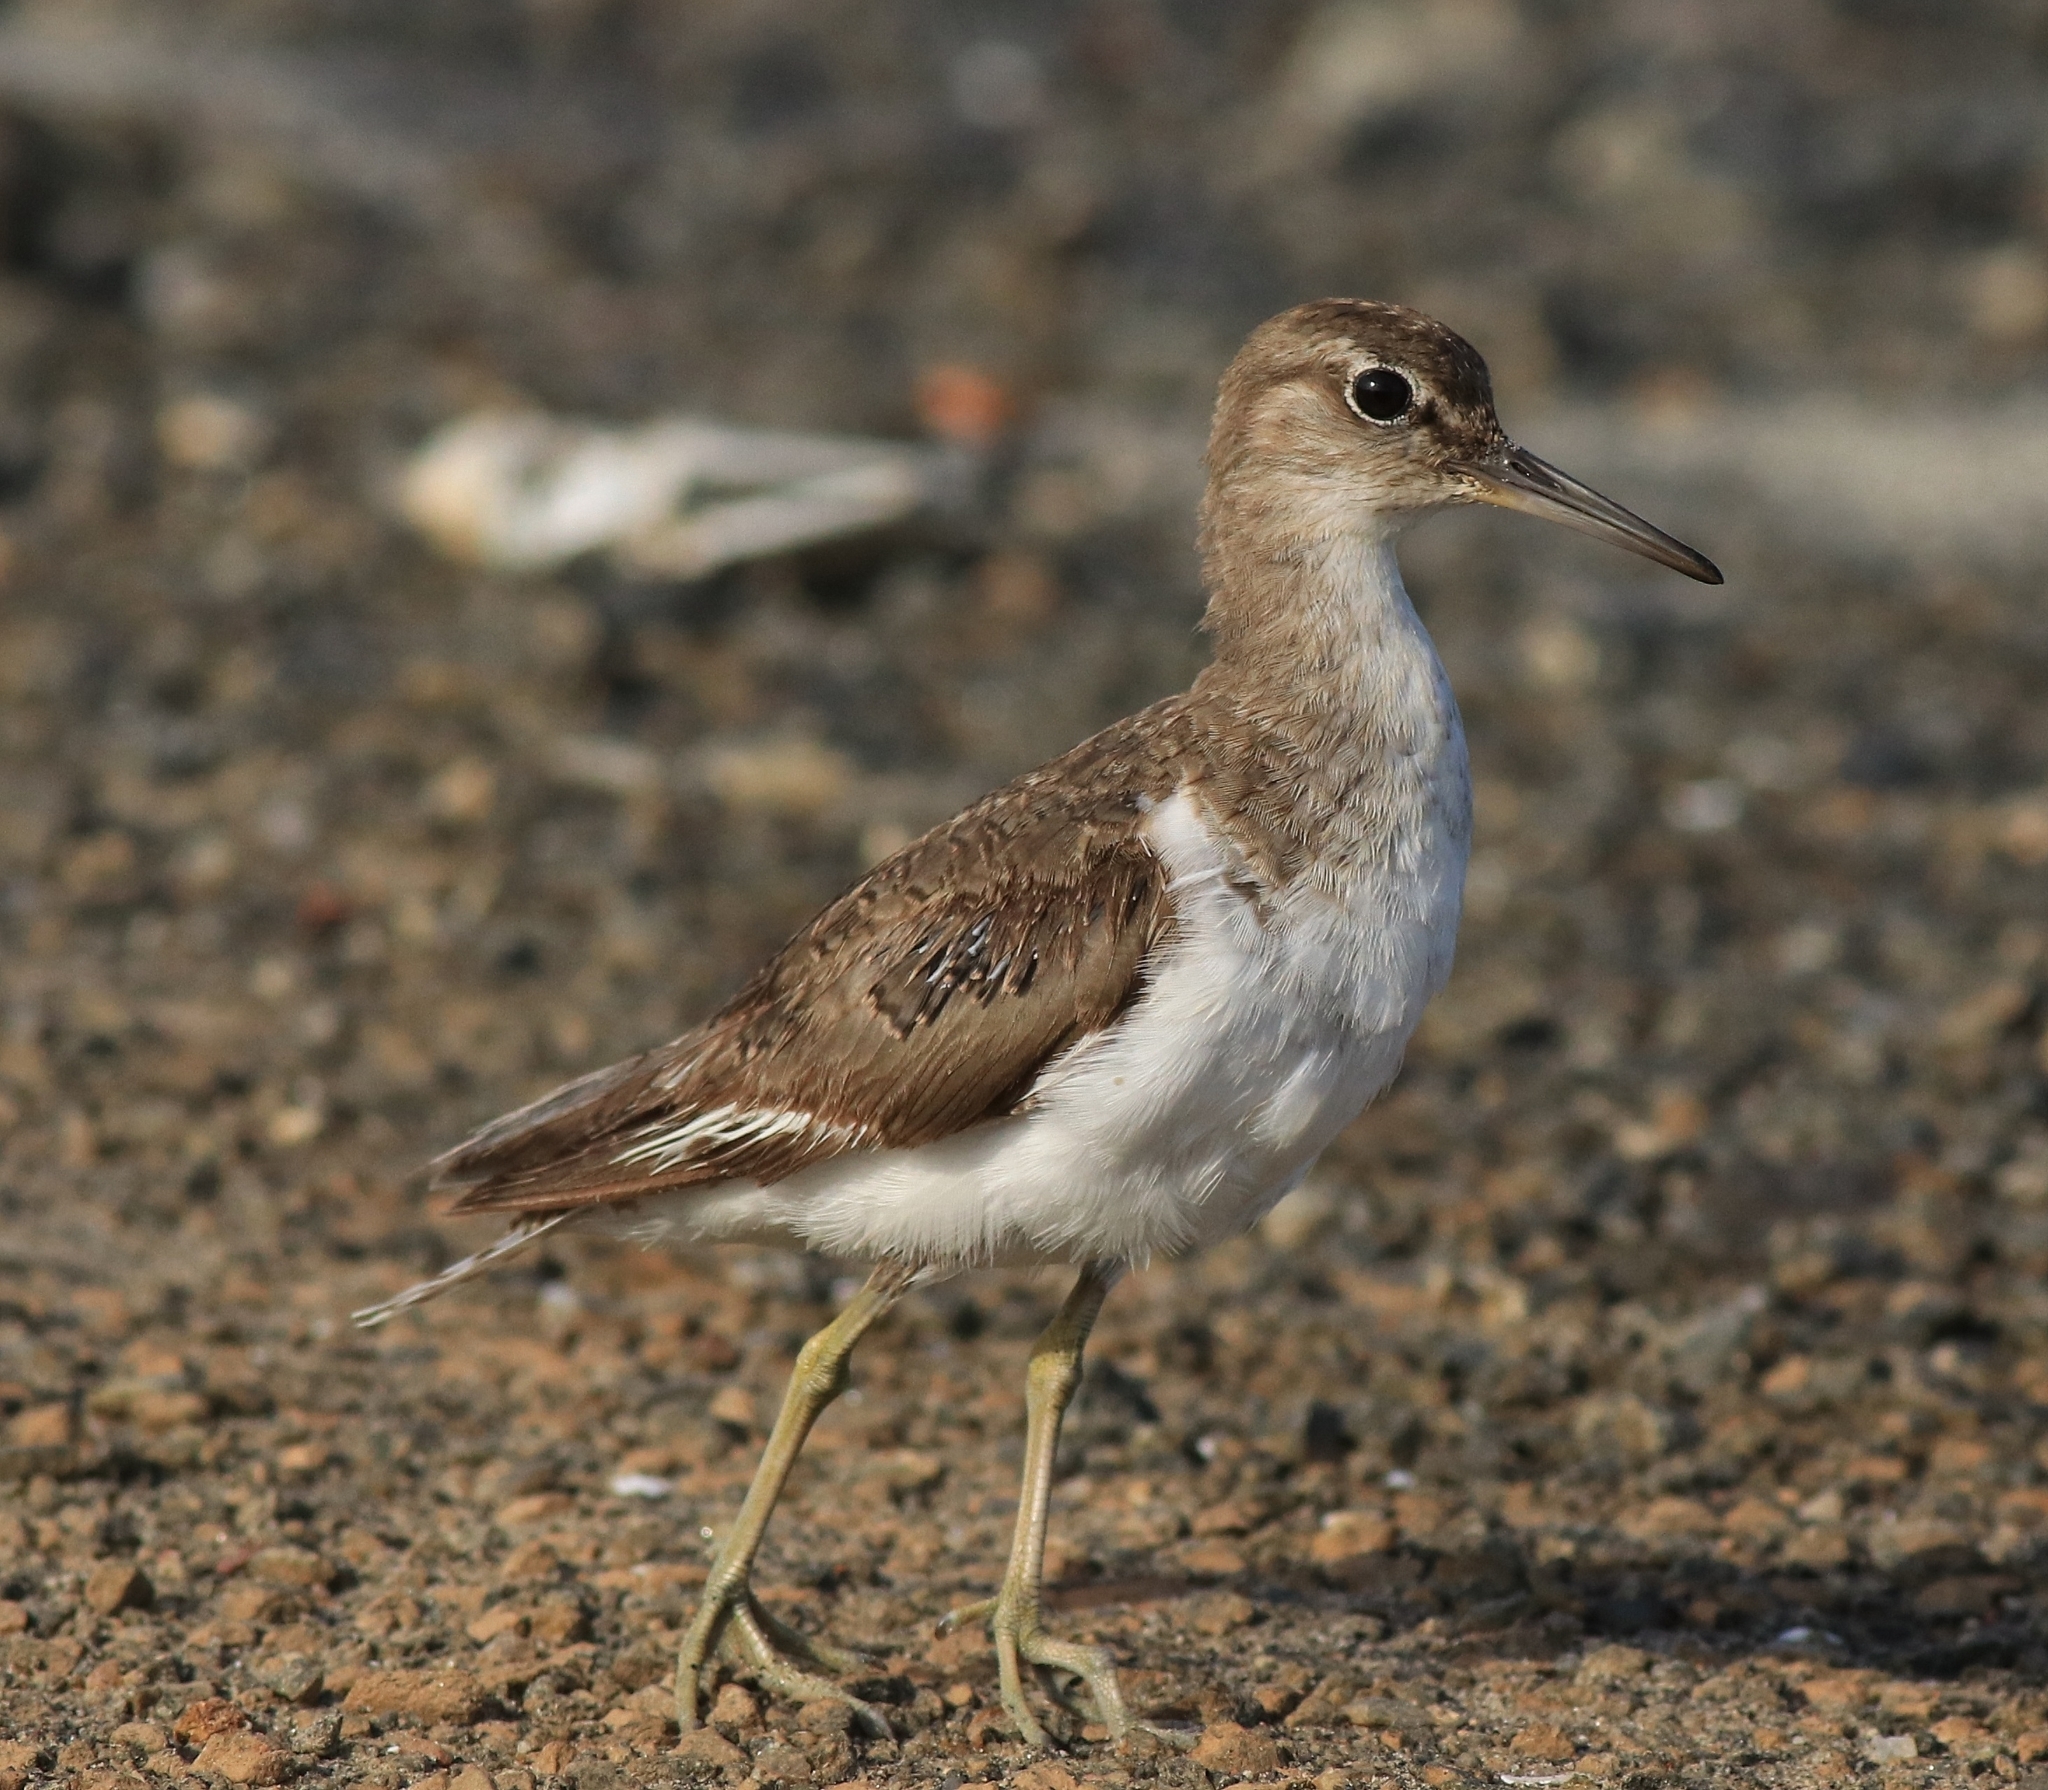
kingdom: Animalia
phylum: Chordata
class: Aves
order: Charadriiformes
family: Scolopacidae
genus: Actitis
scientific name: Actitis hypoleucos
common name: Common sandpiper
